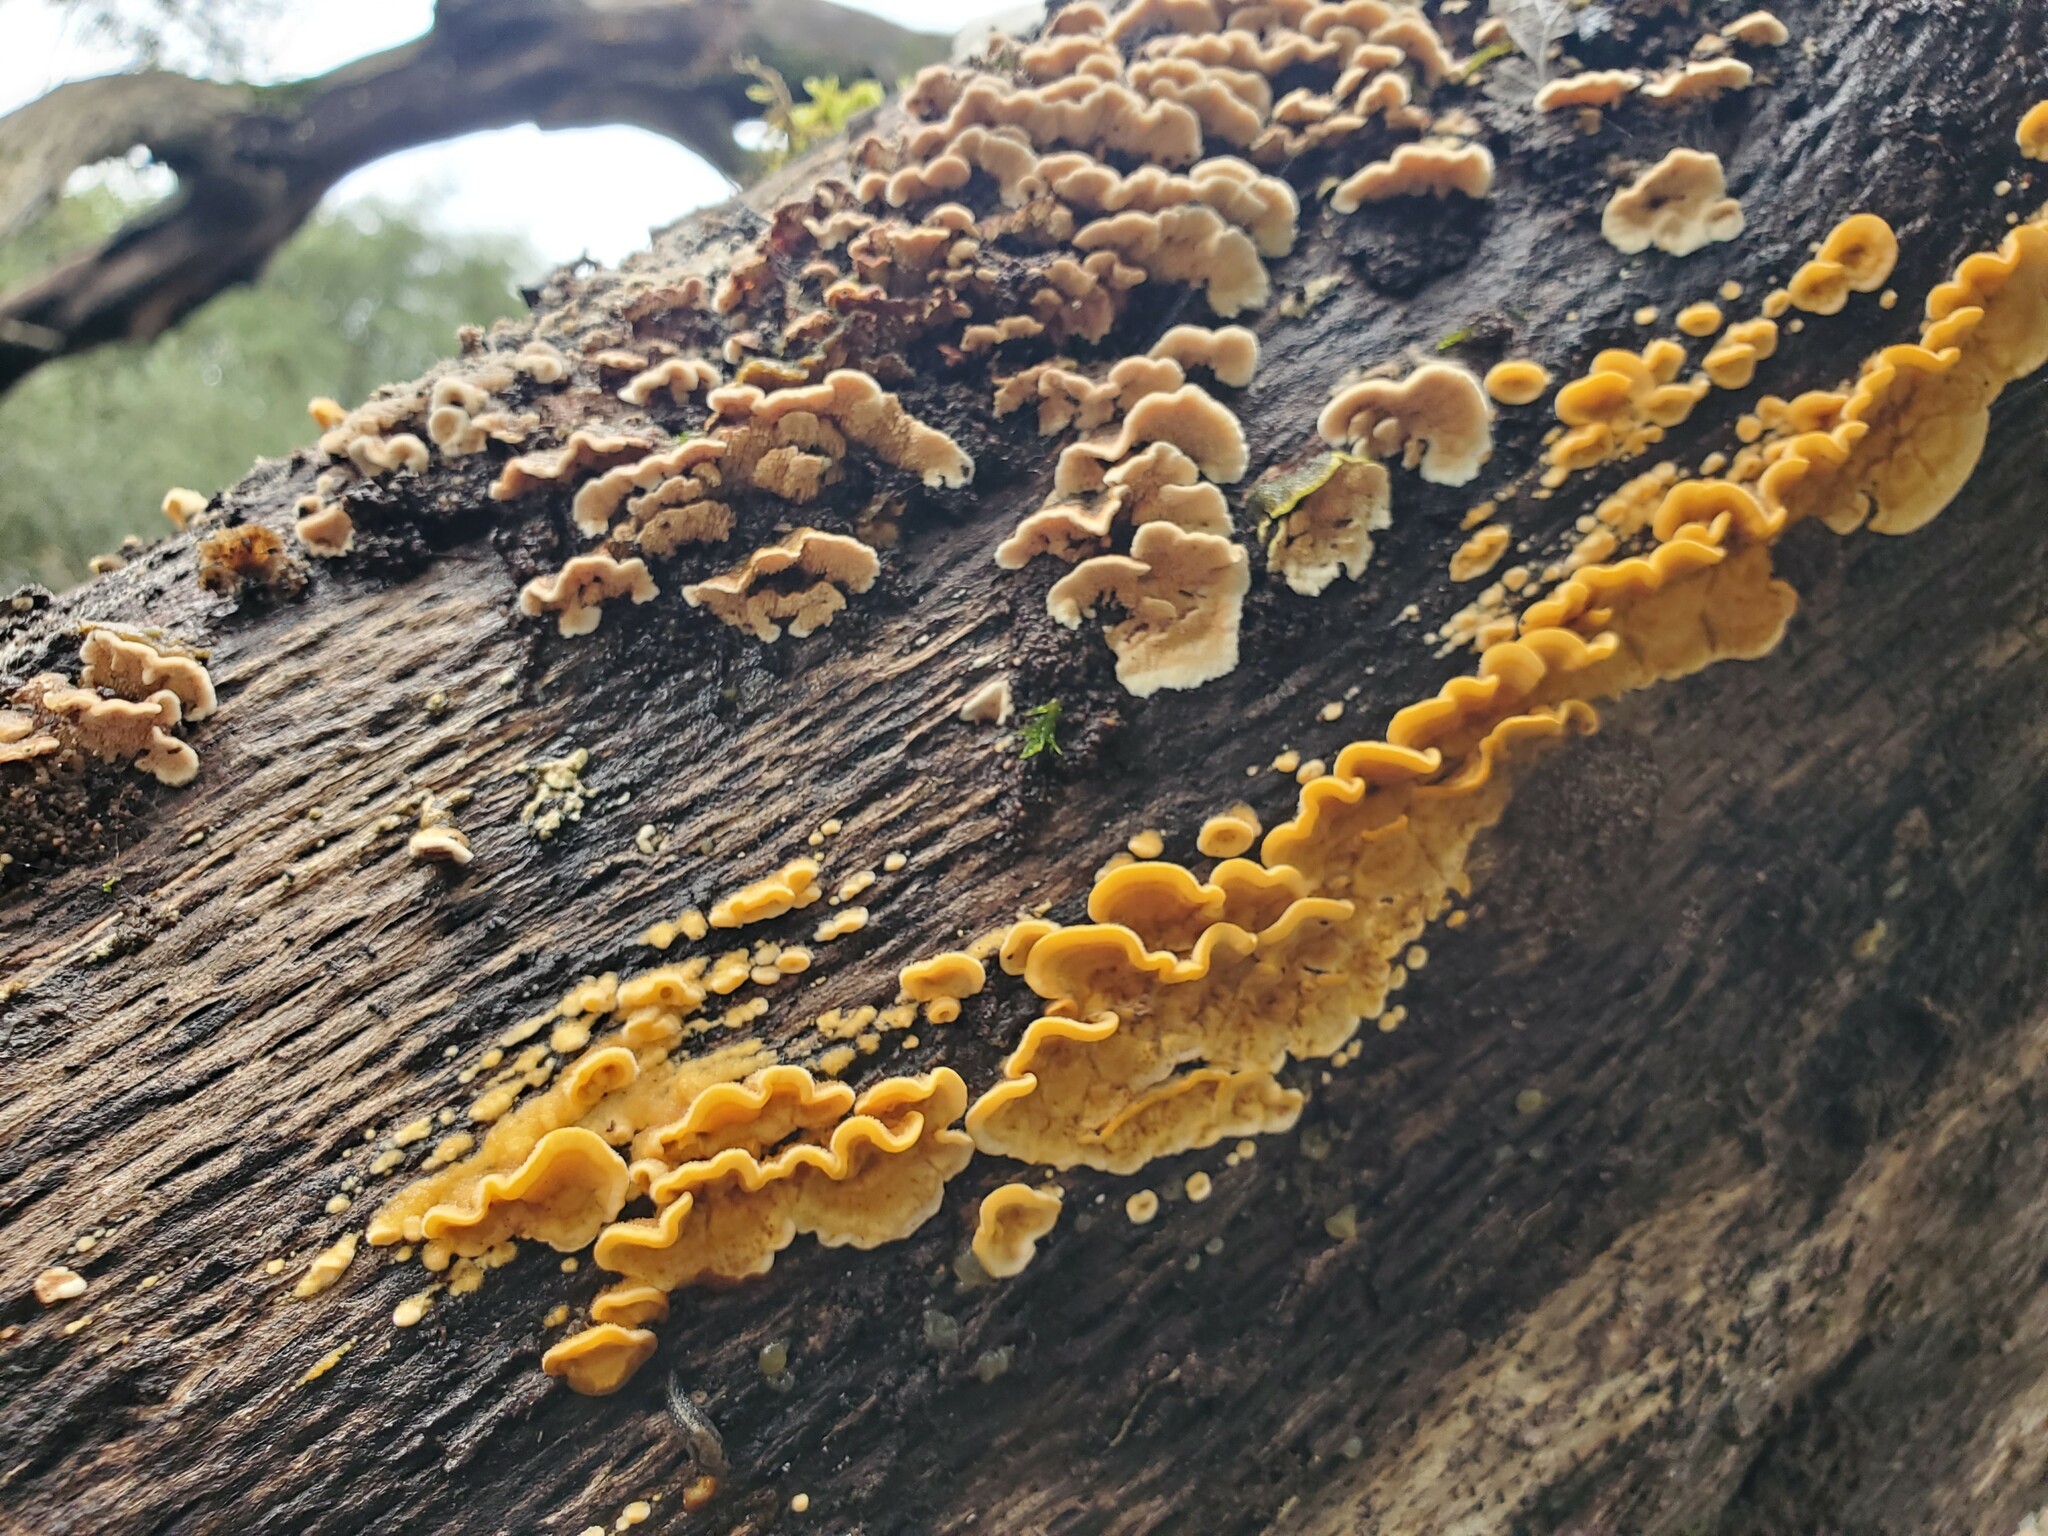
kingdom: Fungi
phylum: Basidiomycota
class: Agaricomycetes
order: Polyporales
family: Polyporaceae
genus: Trametes
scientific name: Trametes versicolor
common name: Turkeytail
